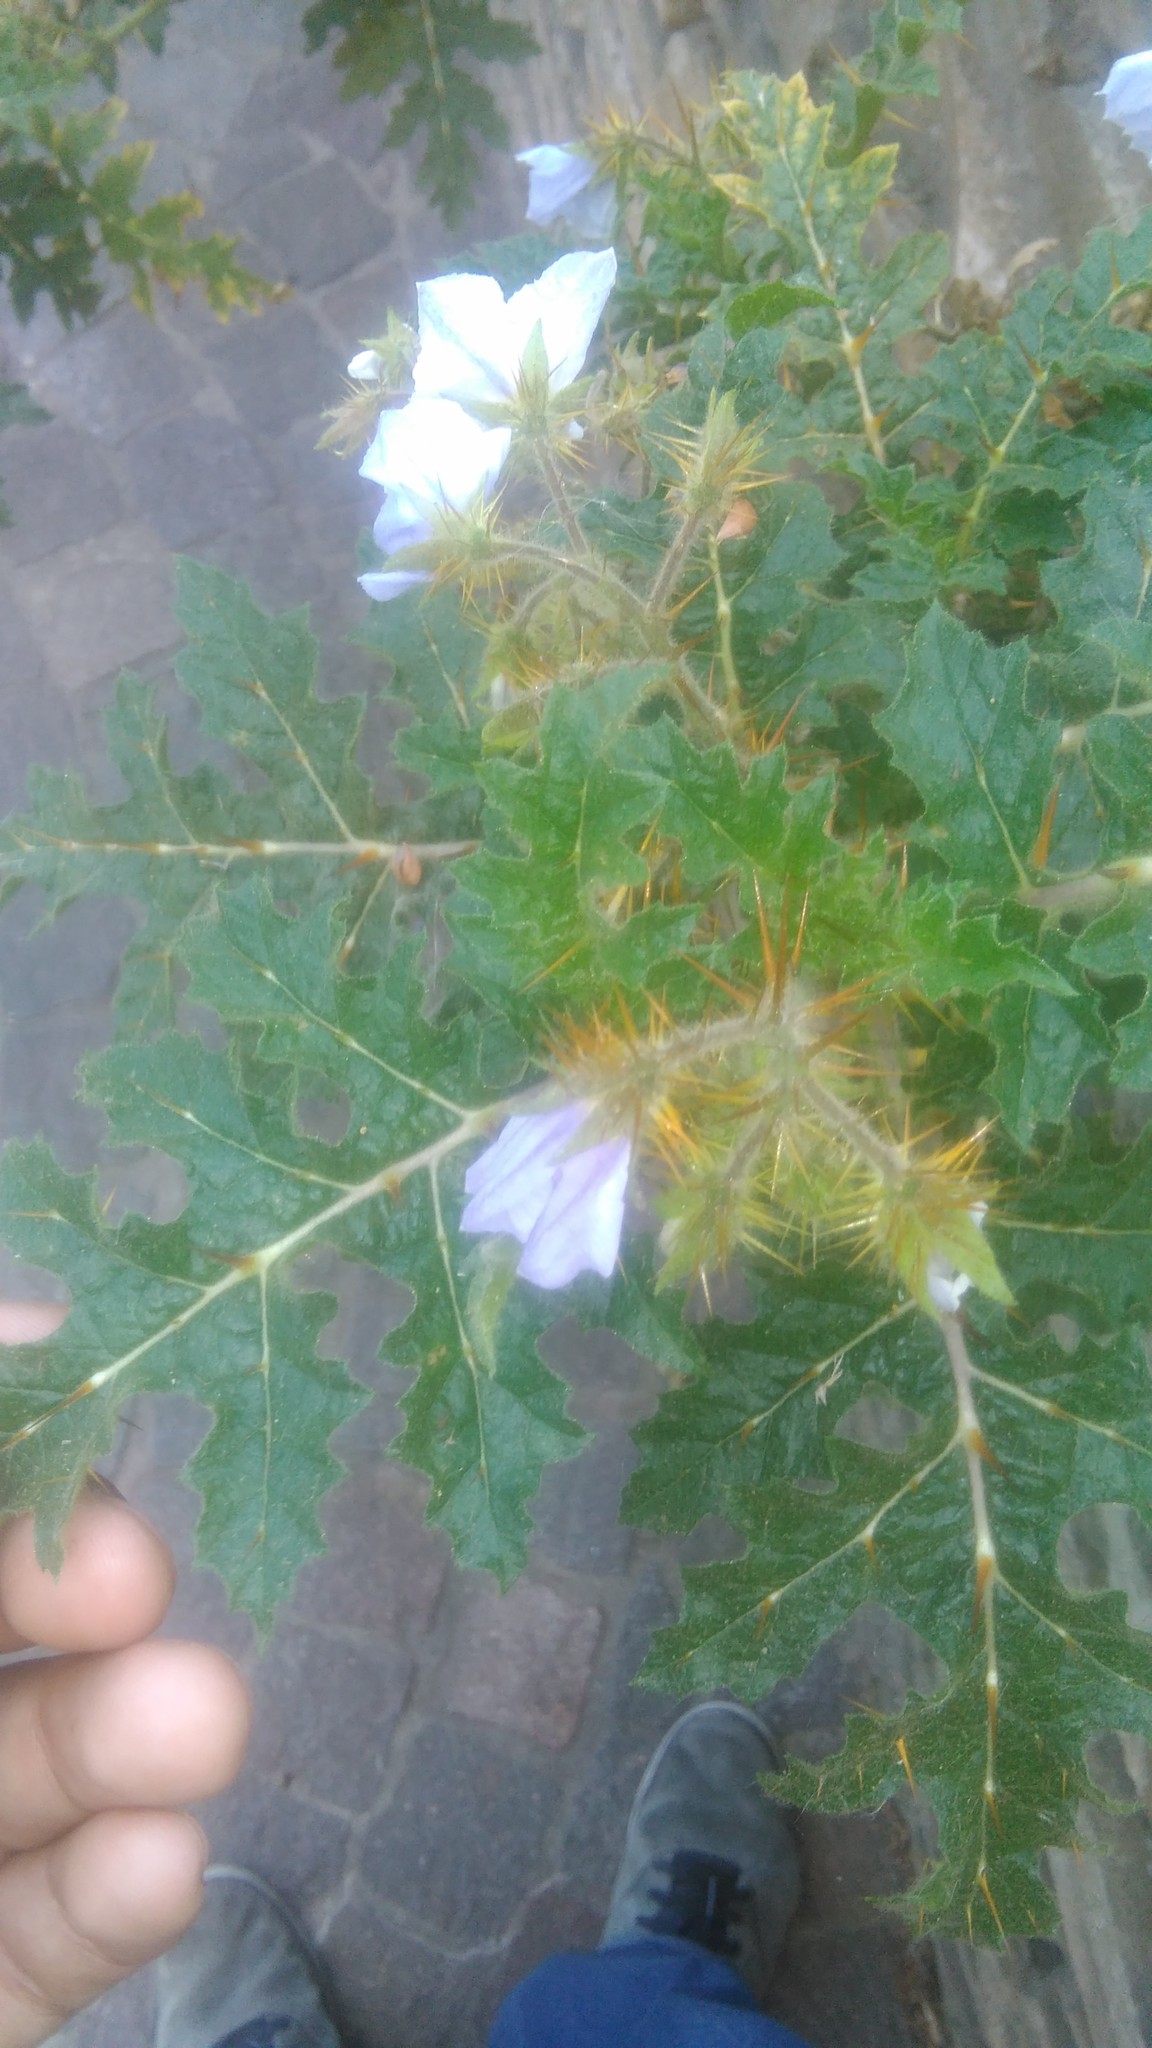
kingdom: Plantae
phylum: Tracheophyta
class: Magnoliopsida
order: Solanales
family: Solanaceae
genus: Solanum
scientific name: Solanum sisymbriifolium
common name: Red buffalo-bur
